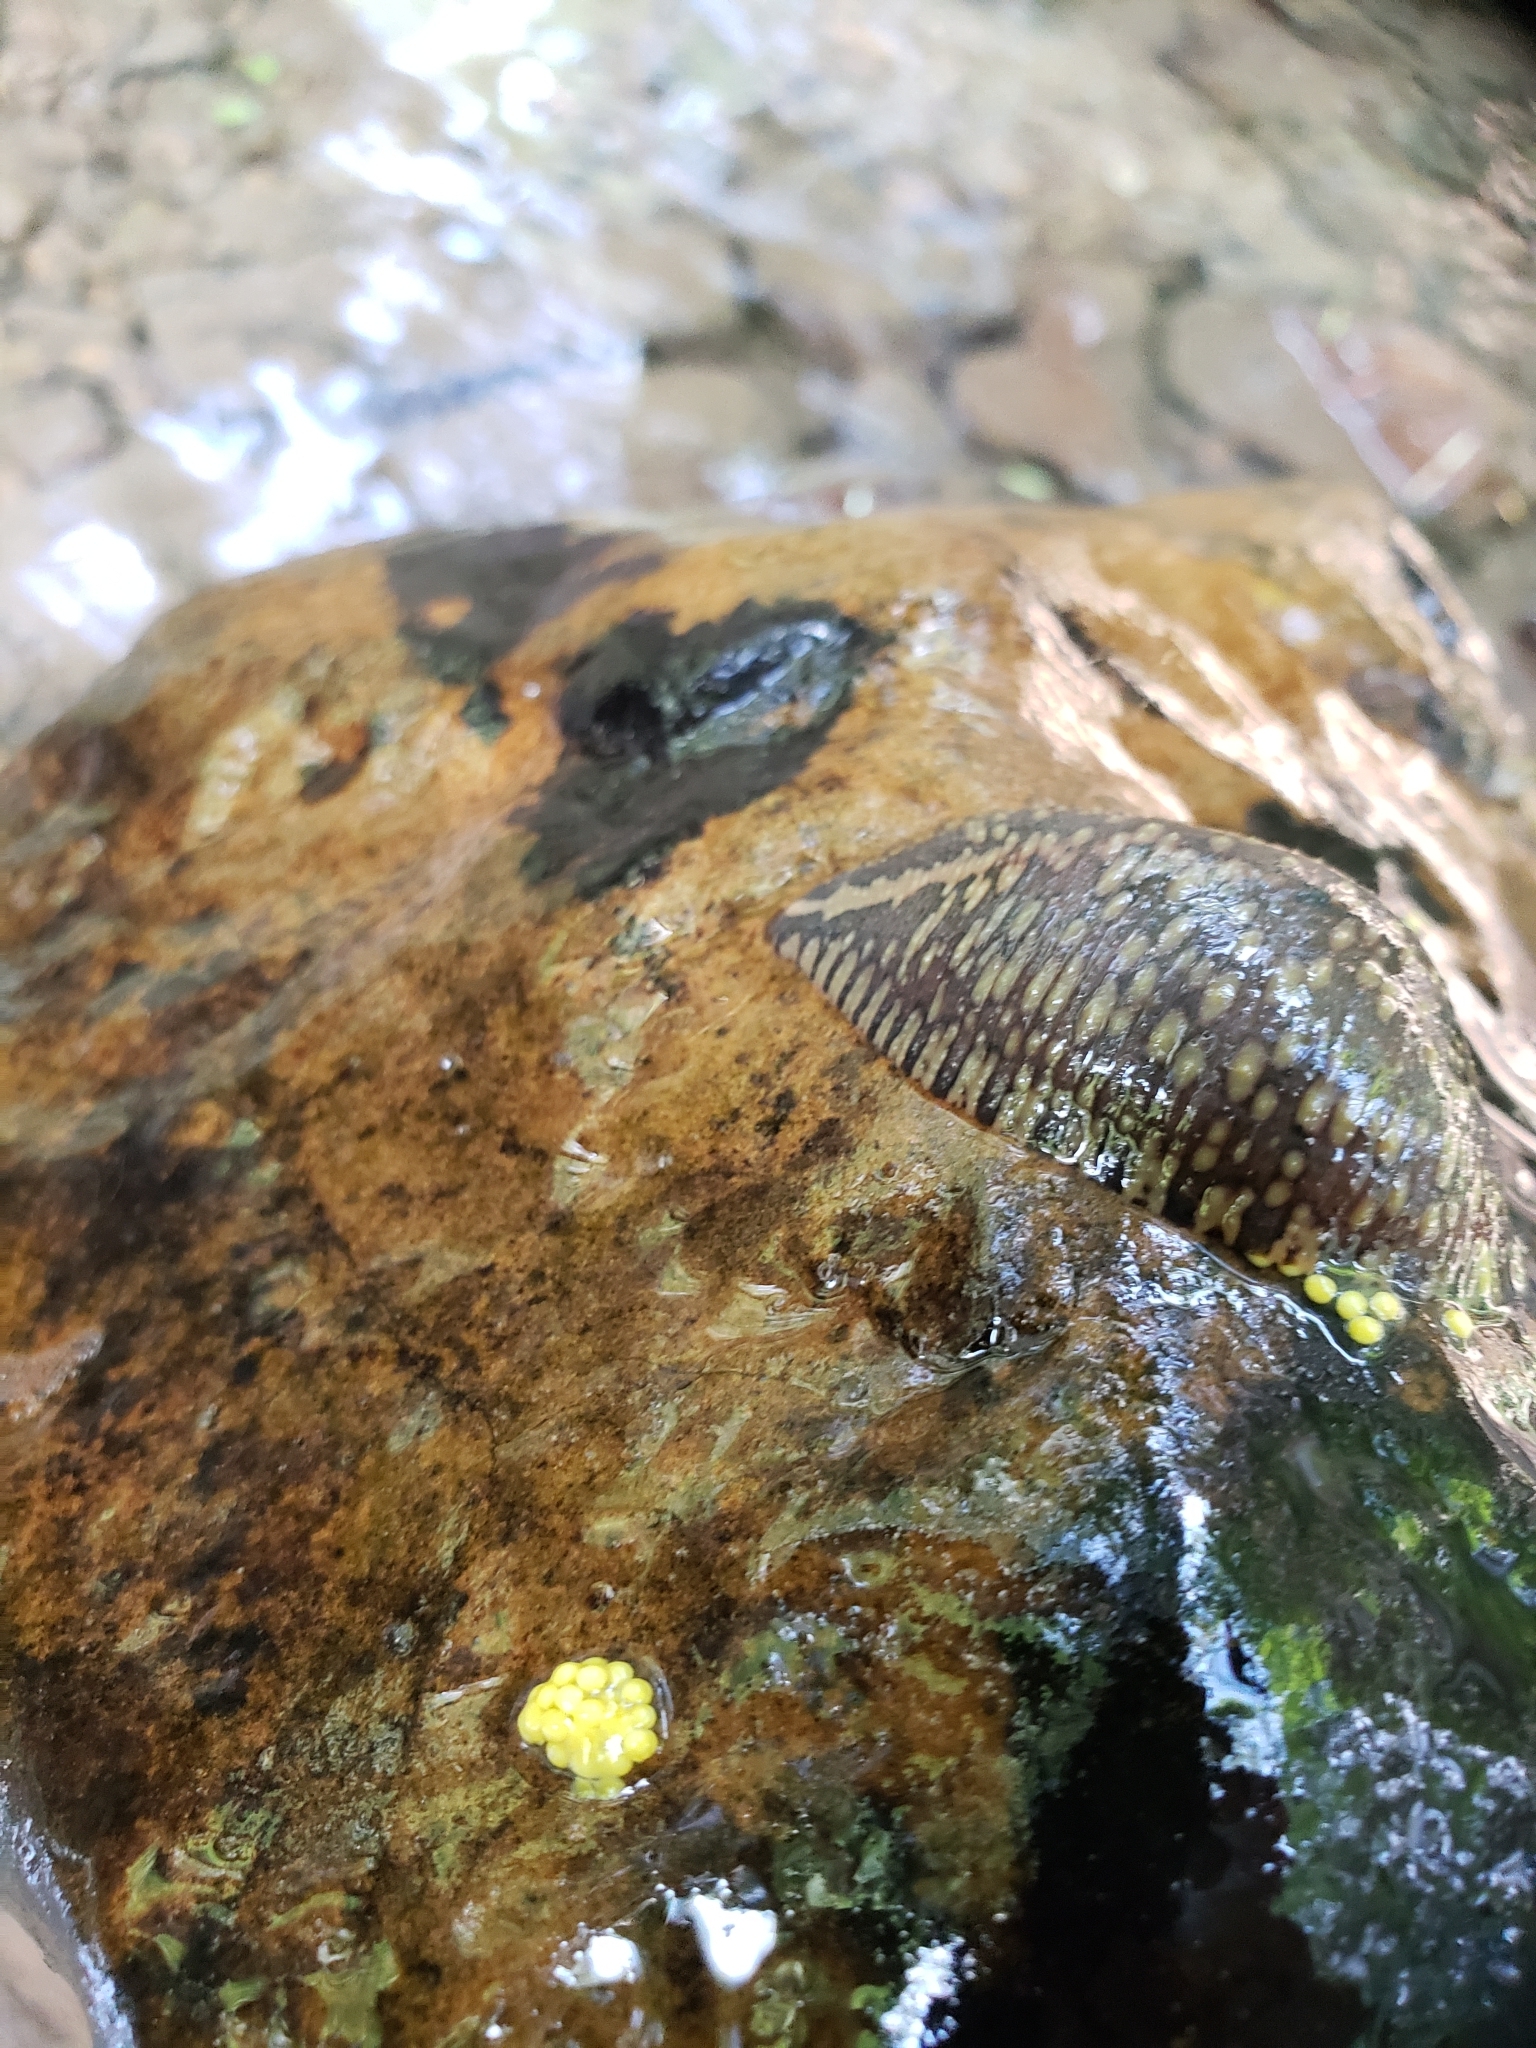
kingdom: Animalia
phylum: Annelida
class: Clitellata
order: Rhynchobdellida
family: Glossiphoniidae
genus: Placobdella
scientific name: Placobdella parasitica
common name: Smooth turtle leech
